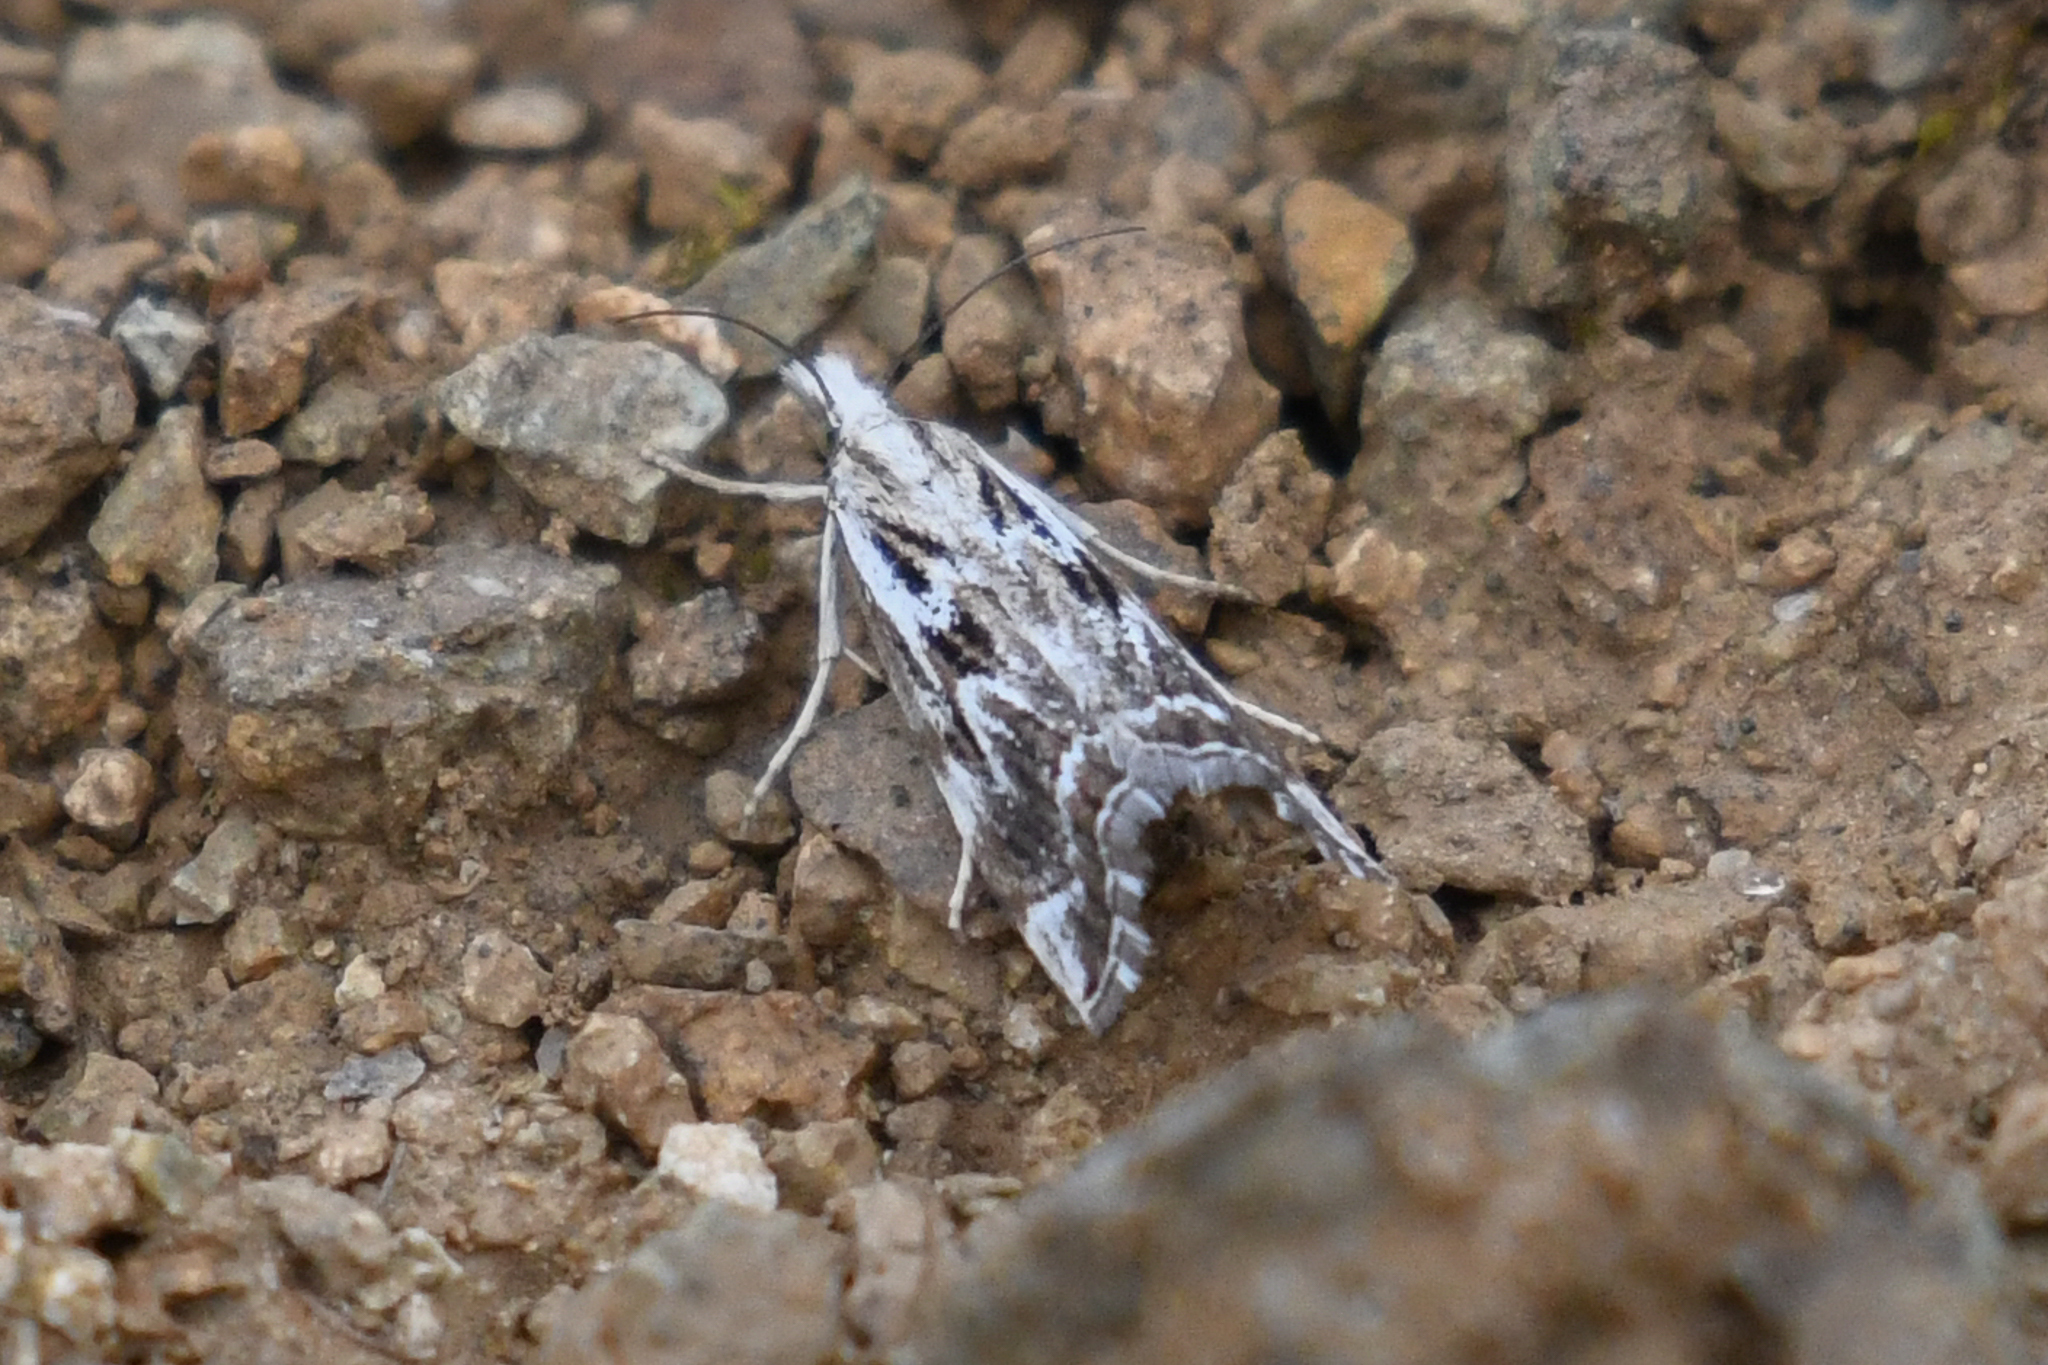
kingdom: Animalia
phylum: Arthropoda
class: Insecta
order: Lepidoptera
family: Crambidae
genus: Catoptria
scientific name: Catoptria oregonicus
